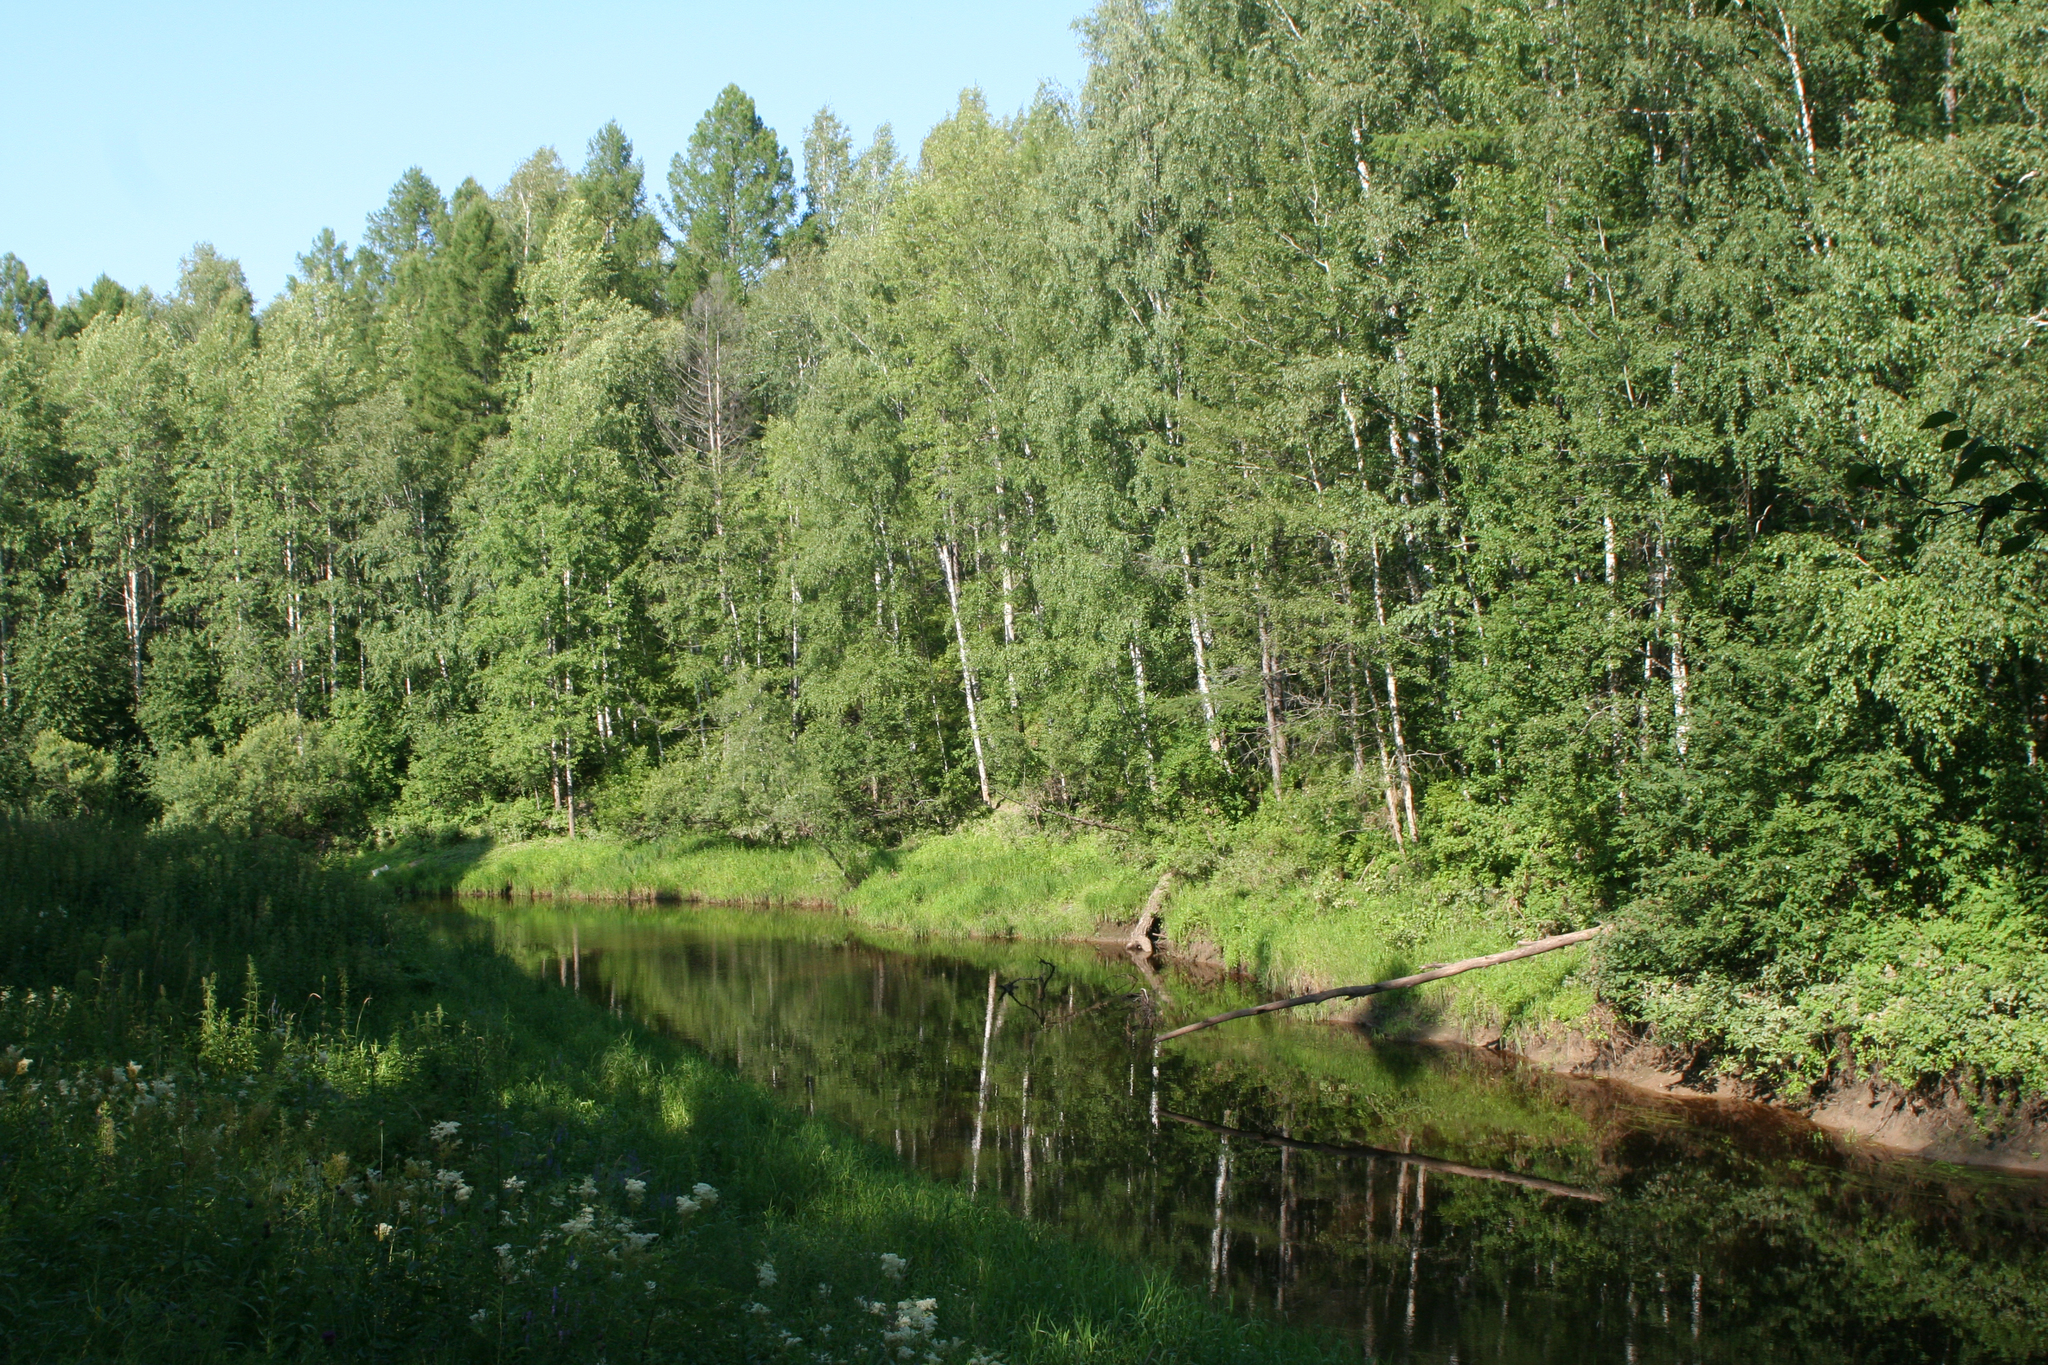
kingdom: Plantae
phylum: Tracheophyta
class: Magnoliopsida
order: Fagales
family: Betulaceae
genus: Betula
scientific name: Betula pendula
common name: Silver birch
